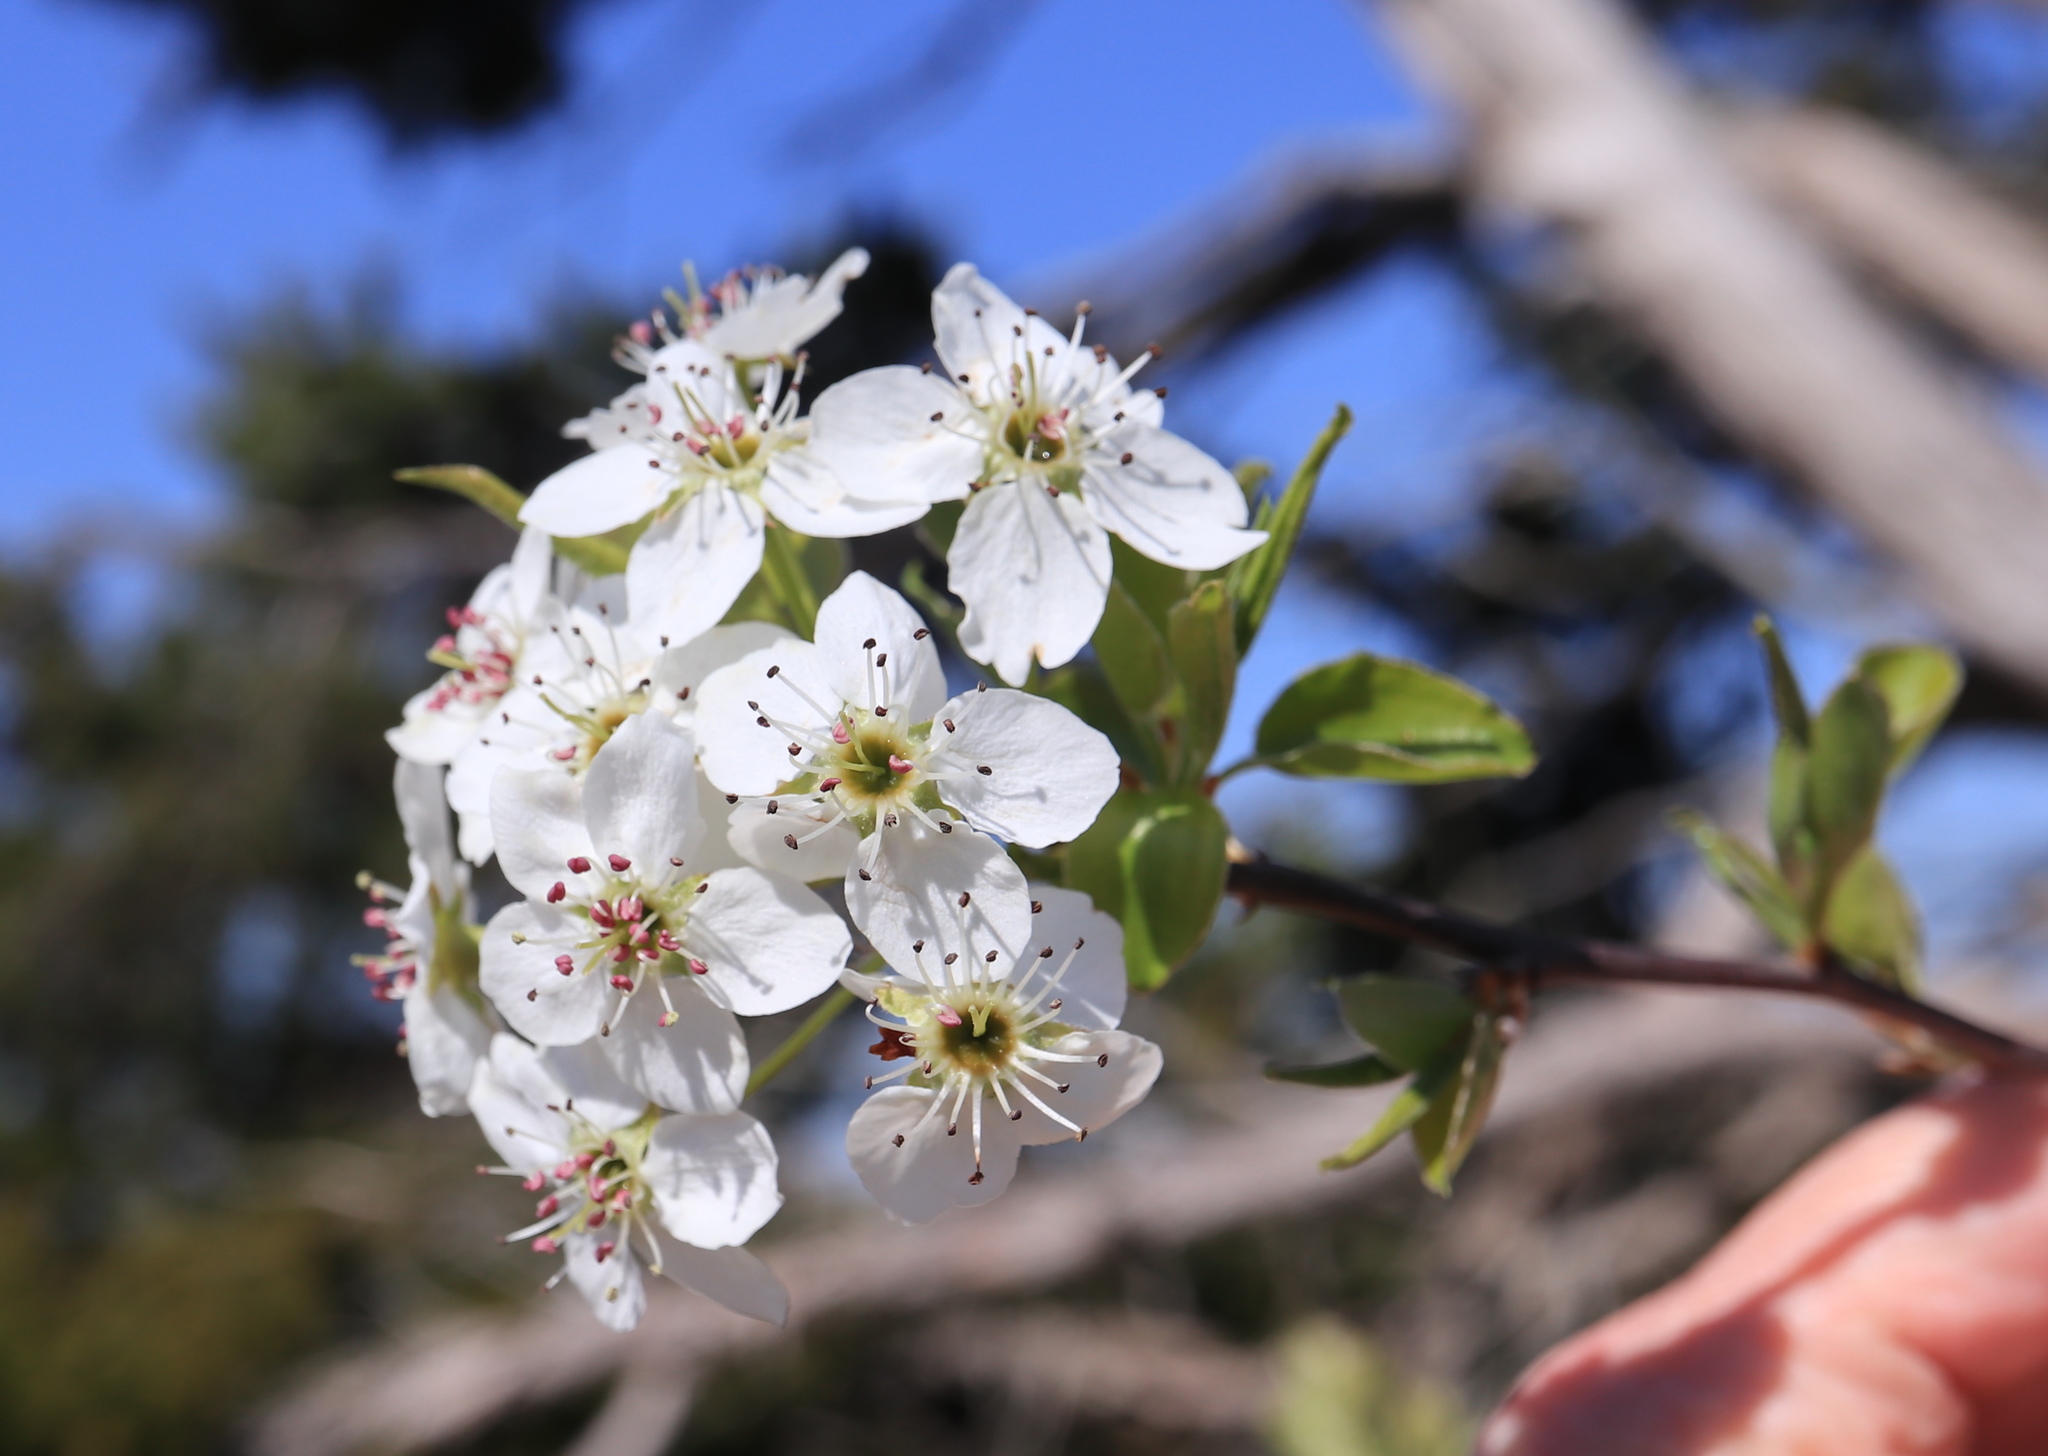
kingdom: Plantae
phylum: Tracheophyta
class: Magnoliopsida
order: Rosales
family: Rosaceae
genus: Pyrus
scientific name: Pyrus calleryana
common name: Callery pear
